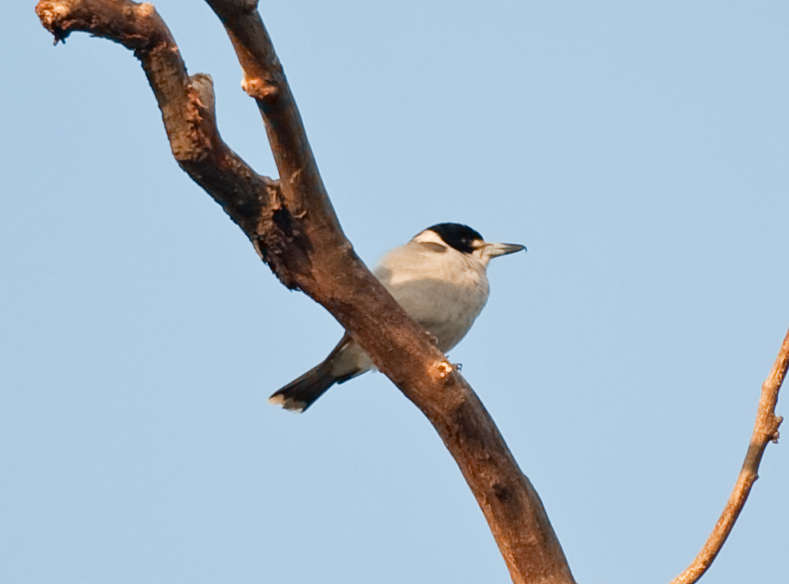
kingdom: Animalia
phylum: Chordata
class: Aves
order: Passeriformes
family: Cracticidae
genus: Cracticus
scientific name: Cracticus torquatus
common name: Grey butcherbird
